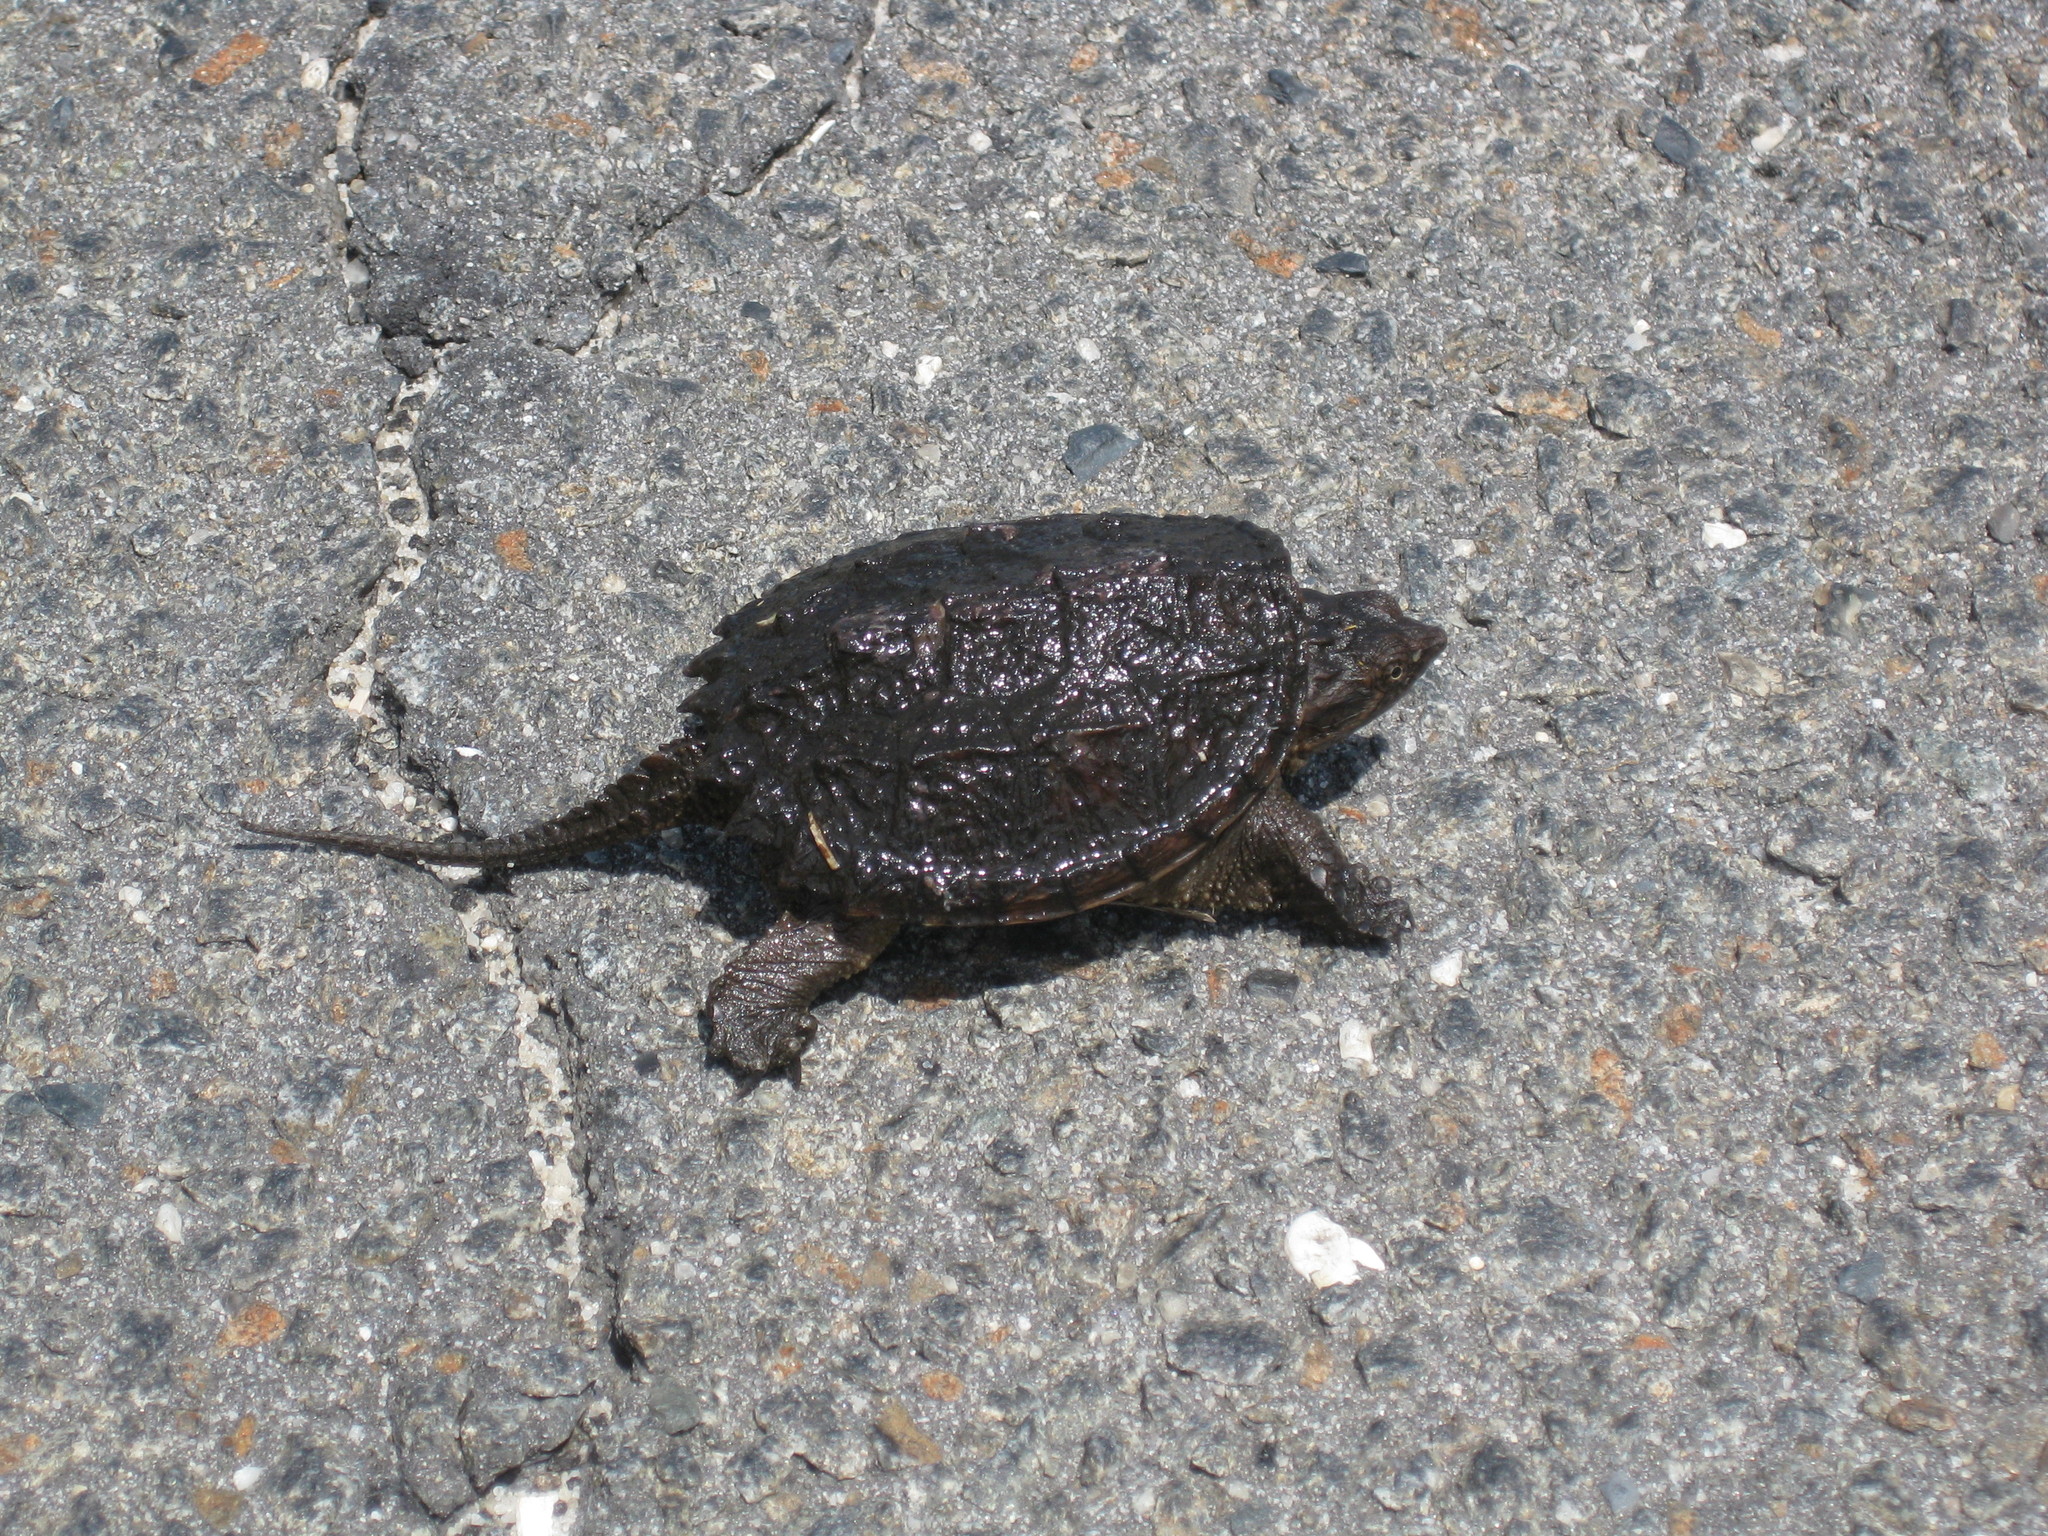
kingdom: Animalia
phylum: Chordata
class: Testudines
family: Chelydridae
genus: Chelydra
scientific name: Chelydra serpentina
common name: Common snapping turtle
